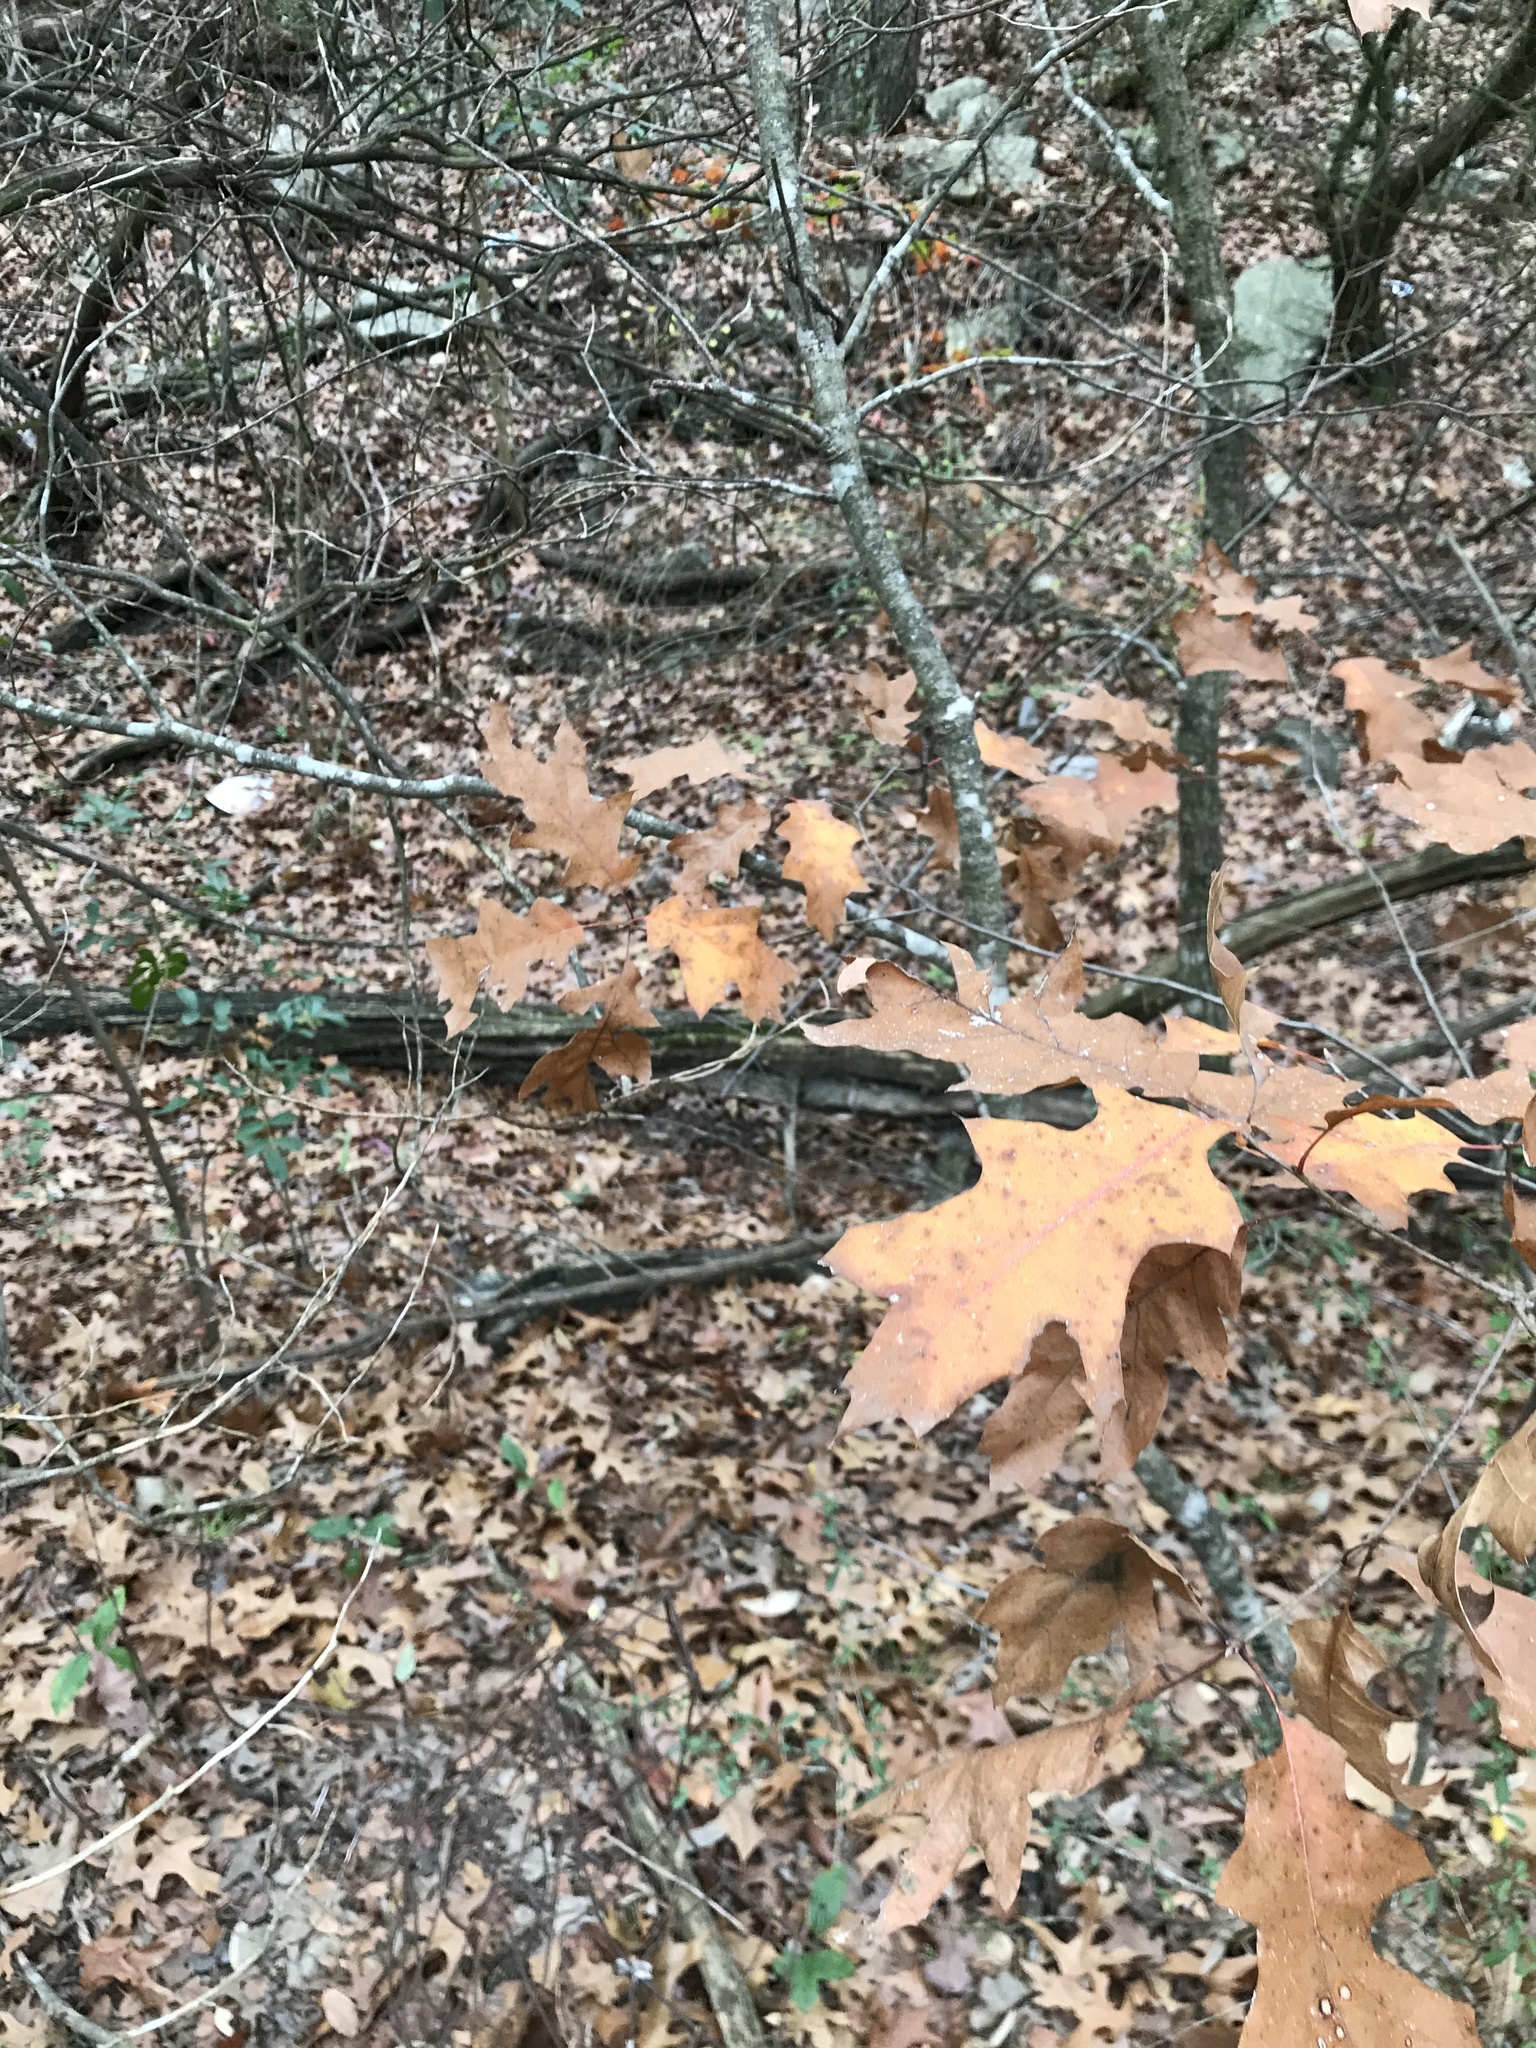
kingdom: Plantae
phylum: Tracheophyta
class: Magnoliopsida
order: Fagales
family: Fagaceae
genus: Quercus
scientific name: Quercus buckleyi
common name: Buckley oak
